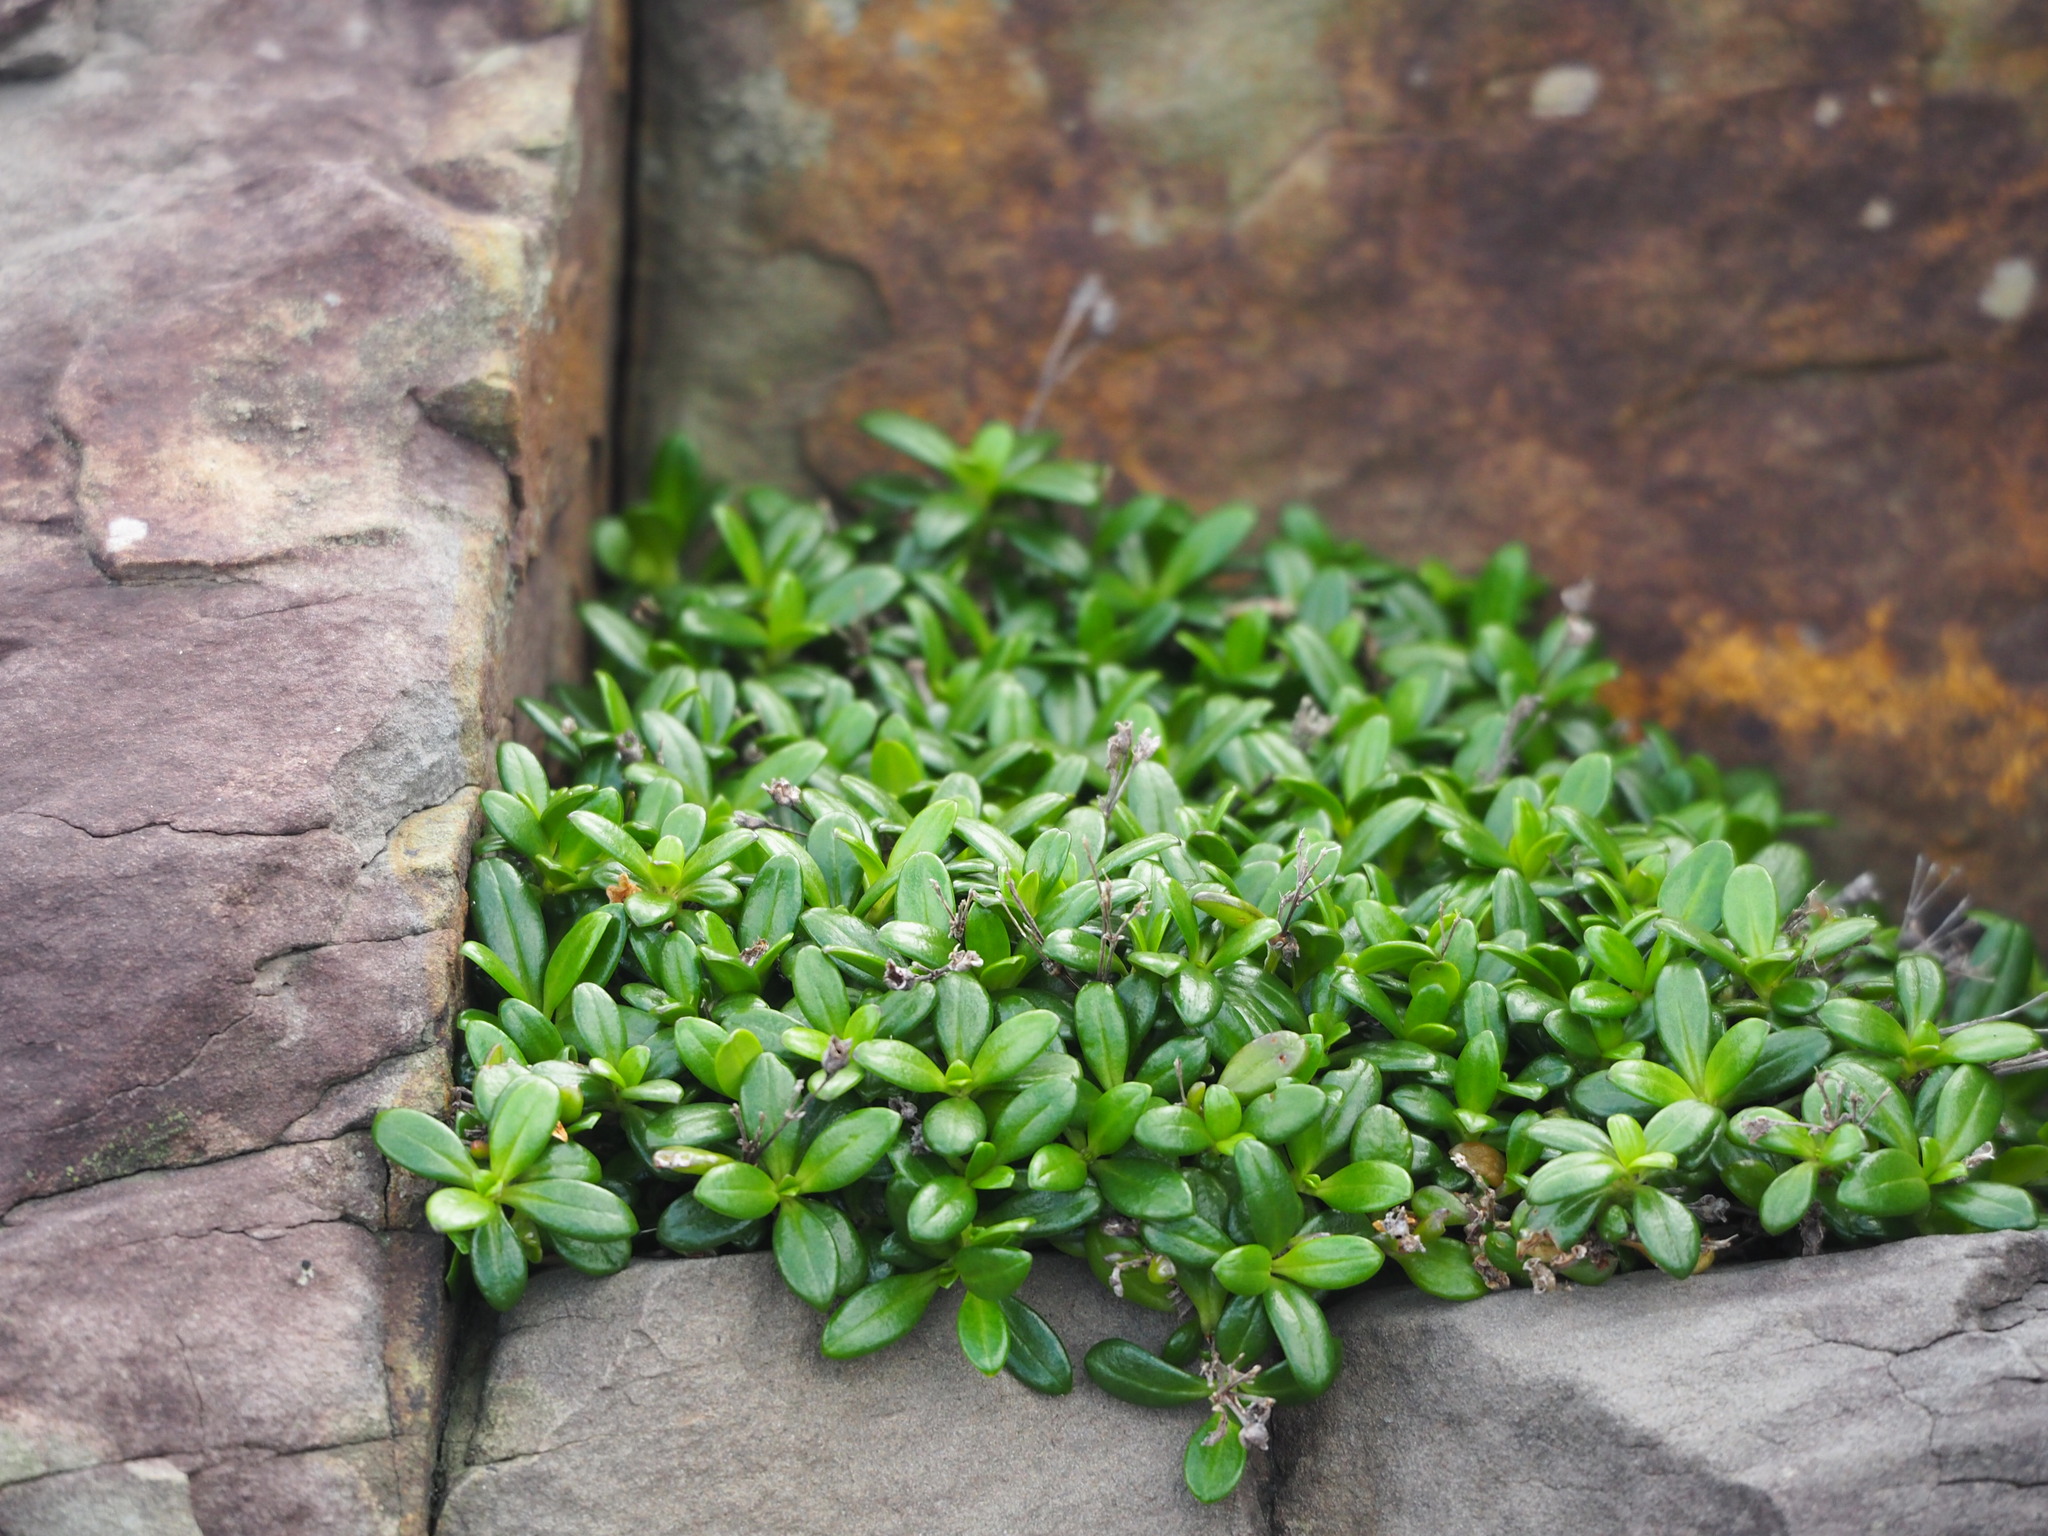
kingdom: Plantae
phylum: Tracheophyta
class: Magnoliopsida
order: Gentianales
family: Rubiaceae
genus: Leptopetalum
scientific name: Leptopetalum strigulosum
